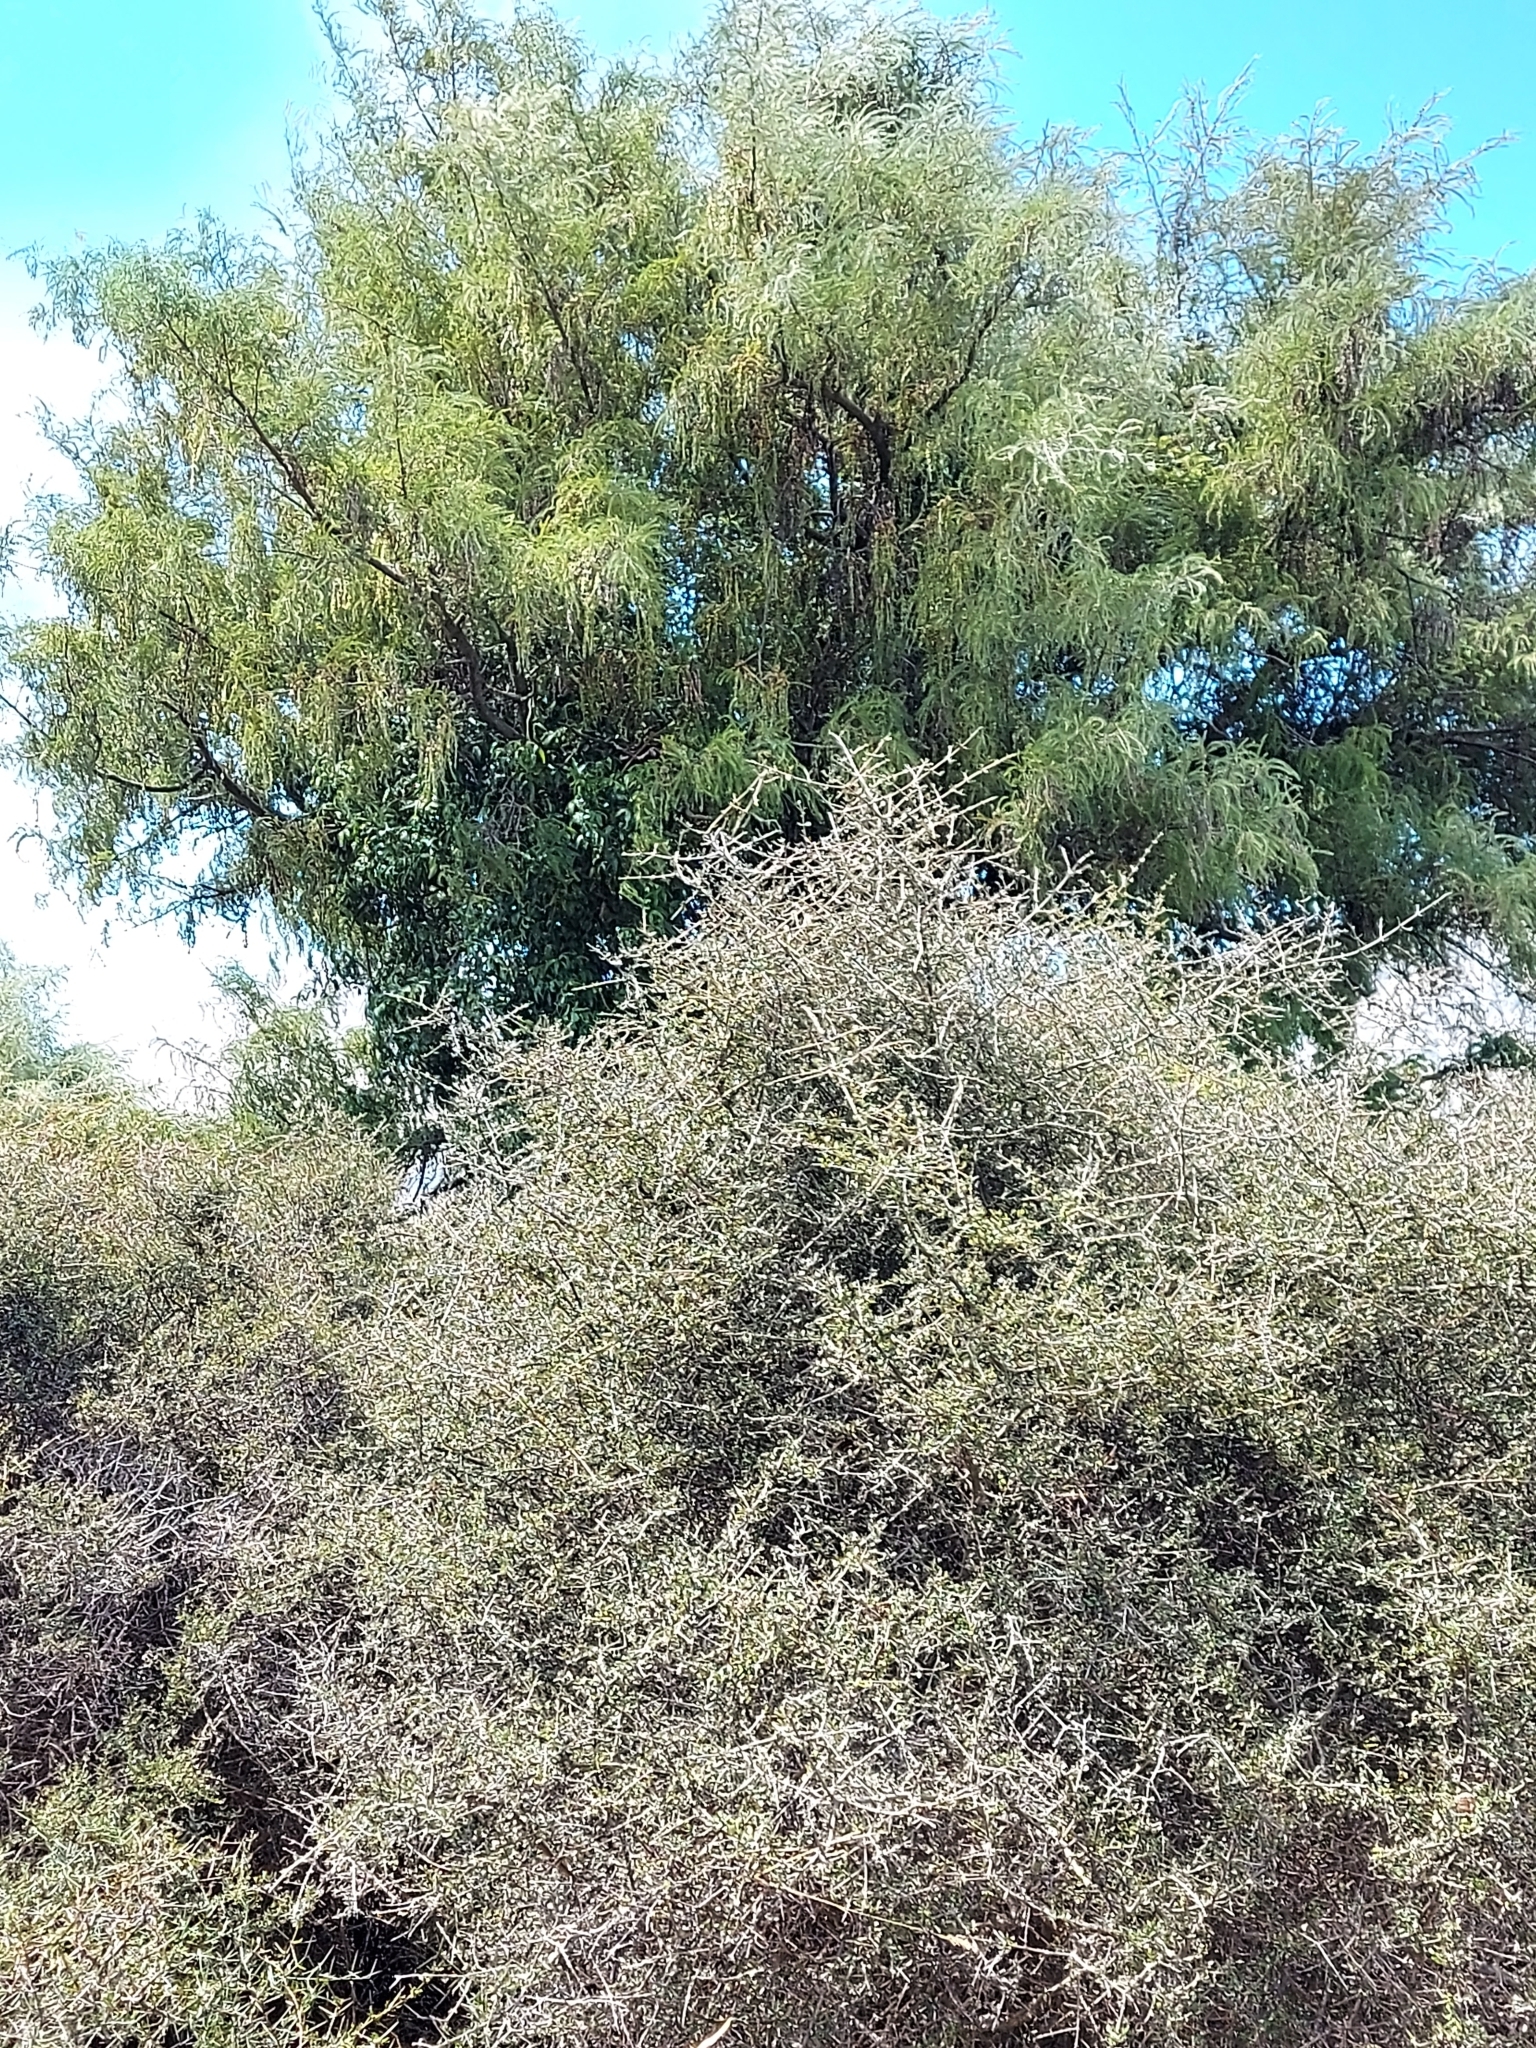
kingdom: Plantae
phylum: Tracheophyta
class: Magnoliopsida
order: Fabales
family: Fabaceae
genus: Sophora
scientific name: Sophora microphylla
